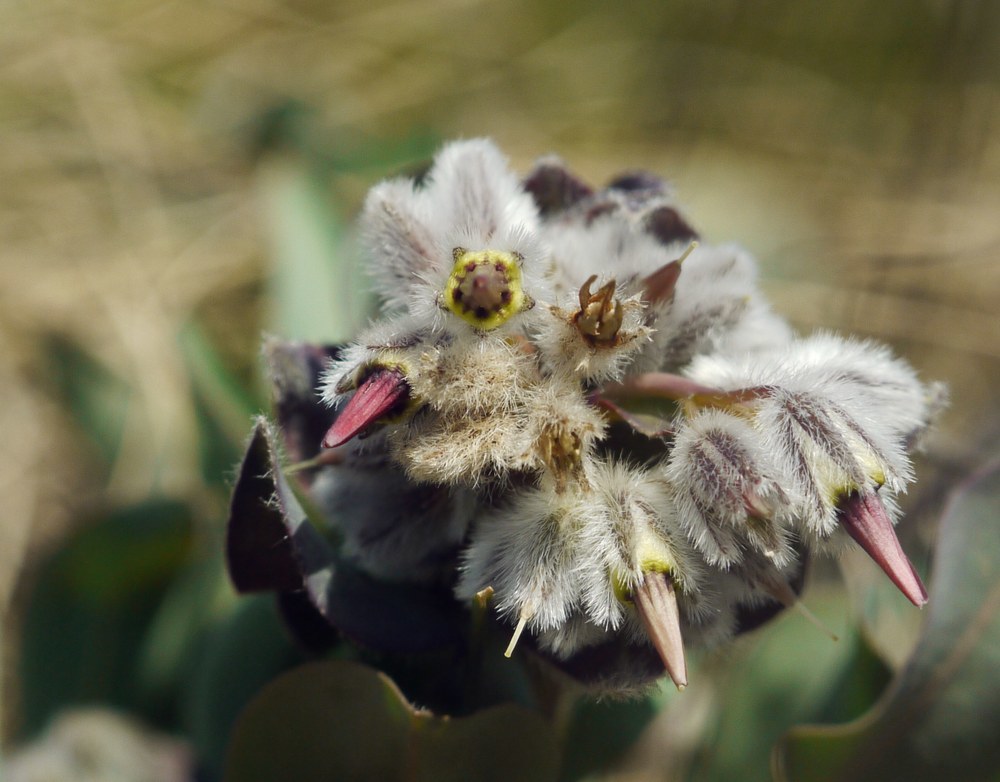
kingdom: Plantae
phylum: Tracheophyta
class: Magnoliopsida
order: Boraginales
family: Boraginaceae
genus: Rindera
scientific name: Rindera tetraspis
